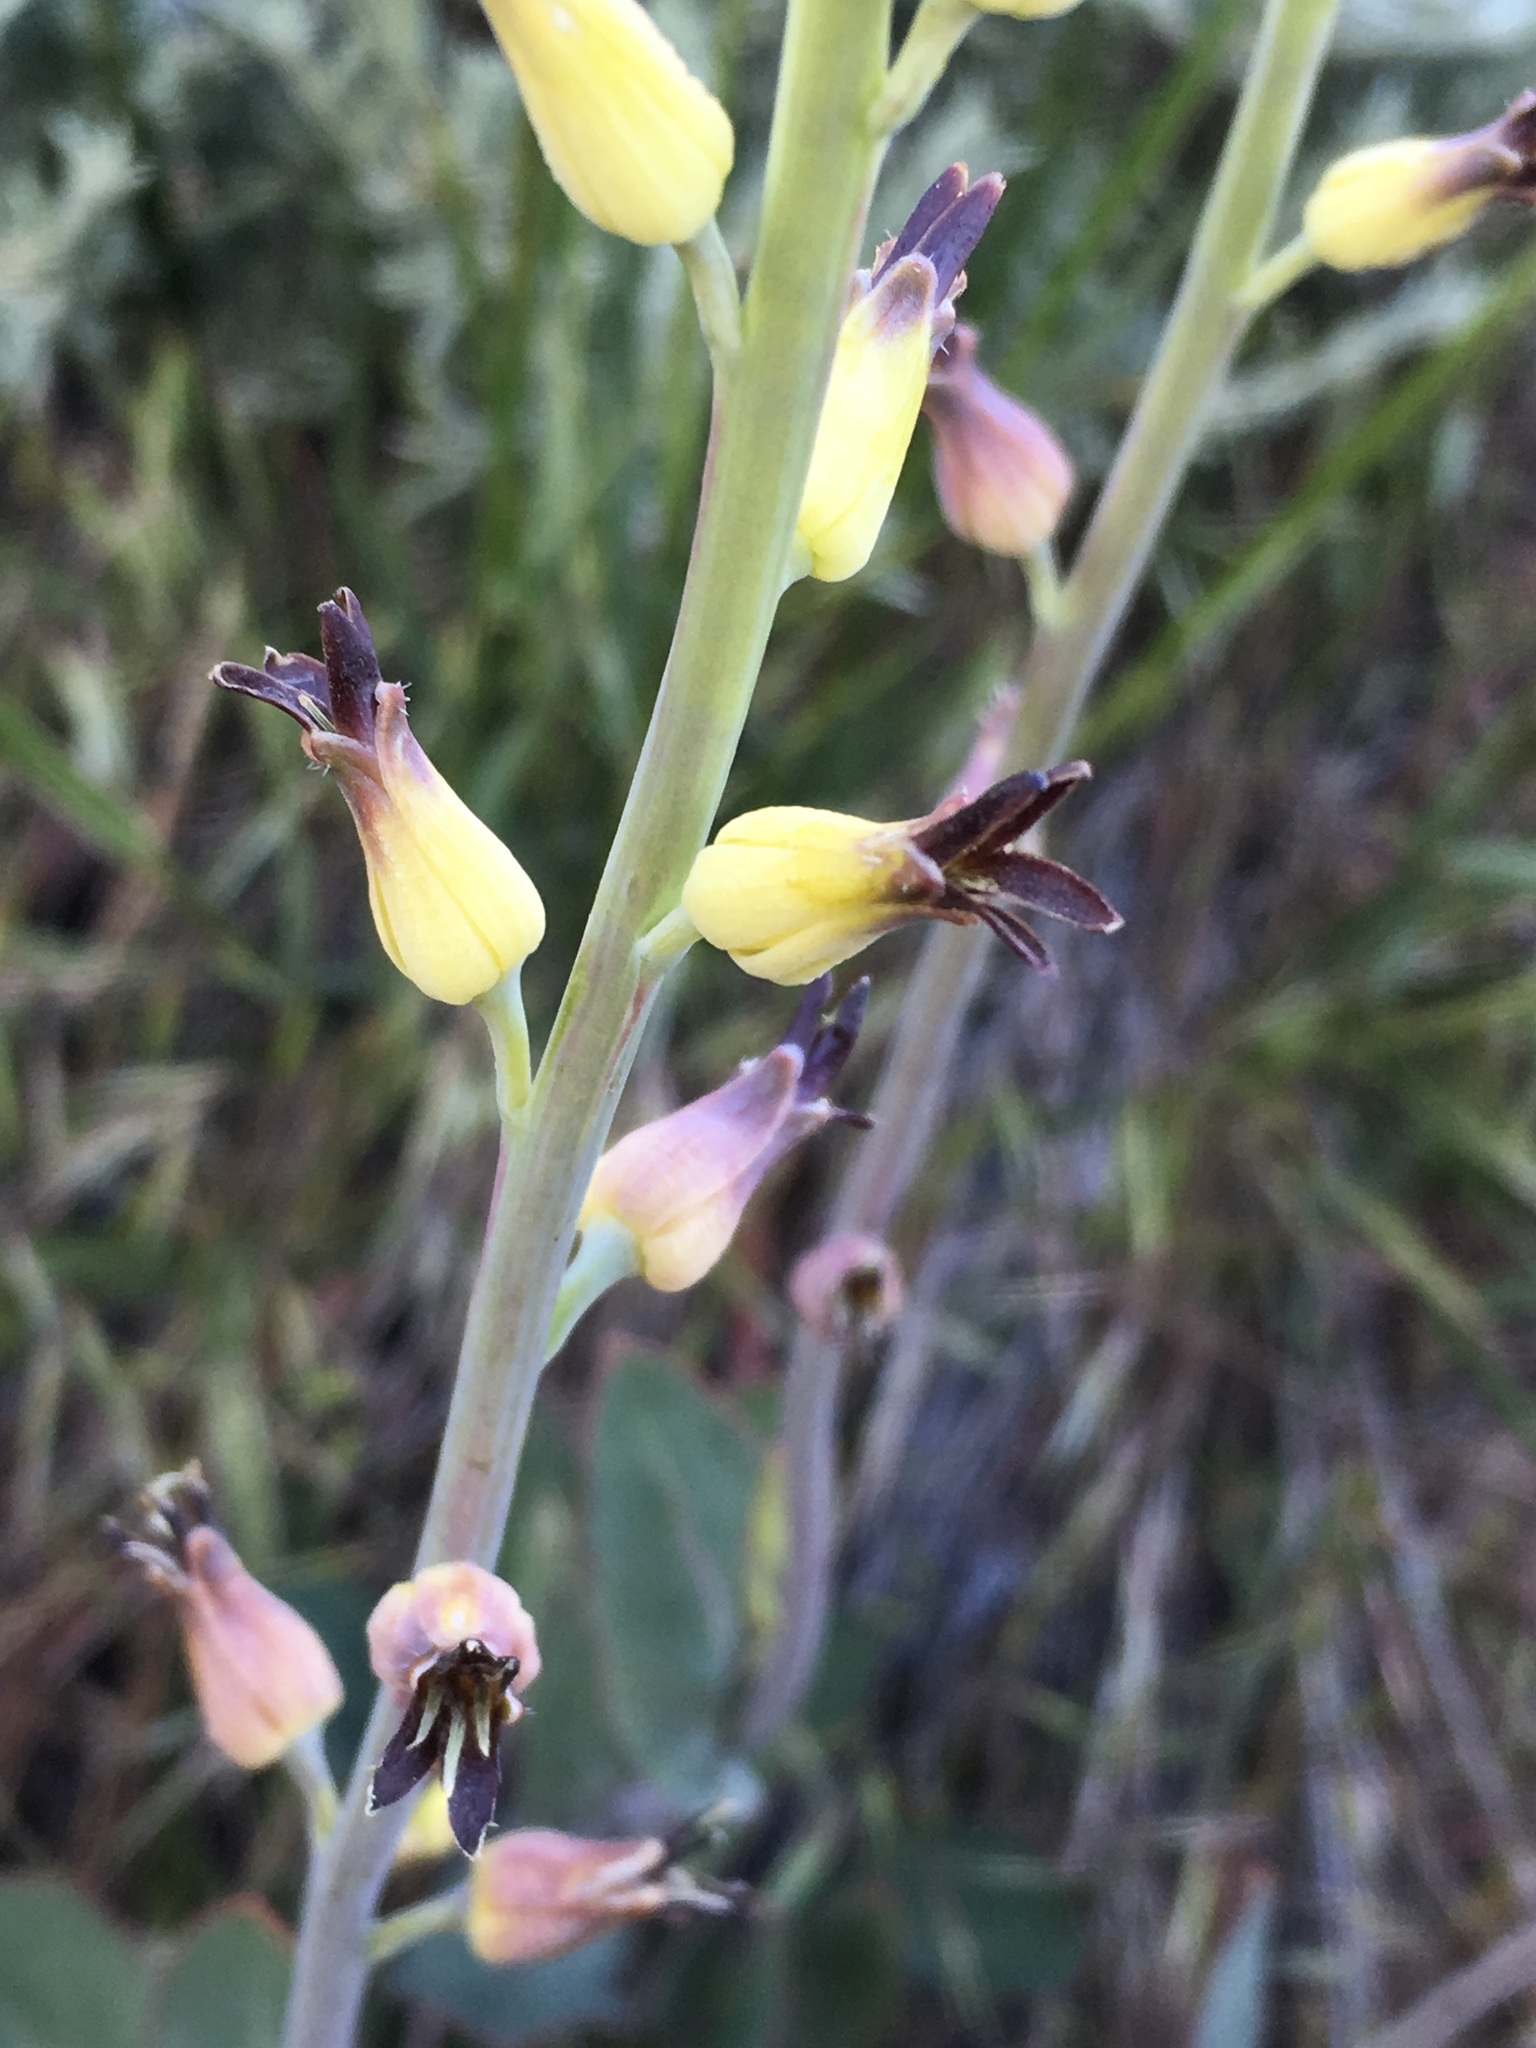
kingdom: Plantae
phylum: Tracheophyta
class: Magnoliopsida
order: Brassicales
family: Brassicaceae
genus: Streptanthus
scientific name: Streptanthus cordatus
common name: Heart-leaf jewel-flower
